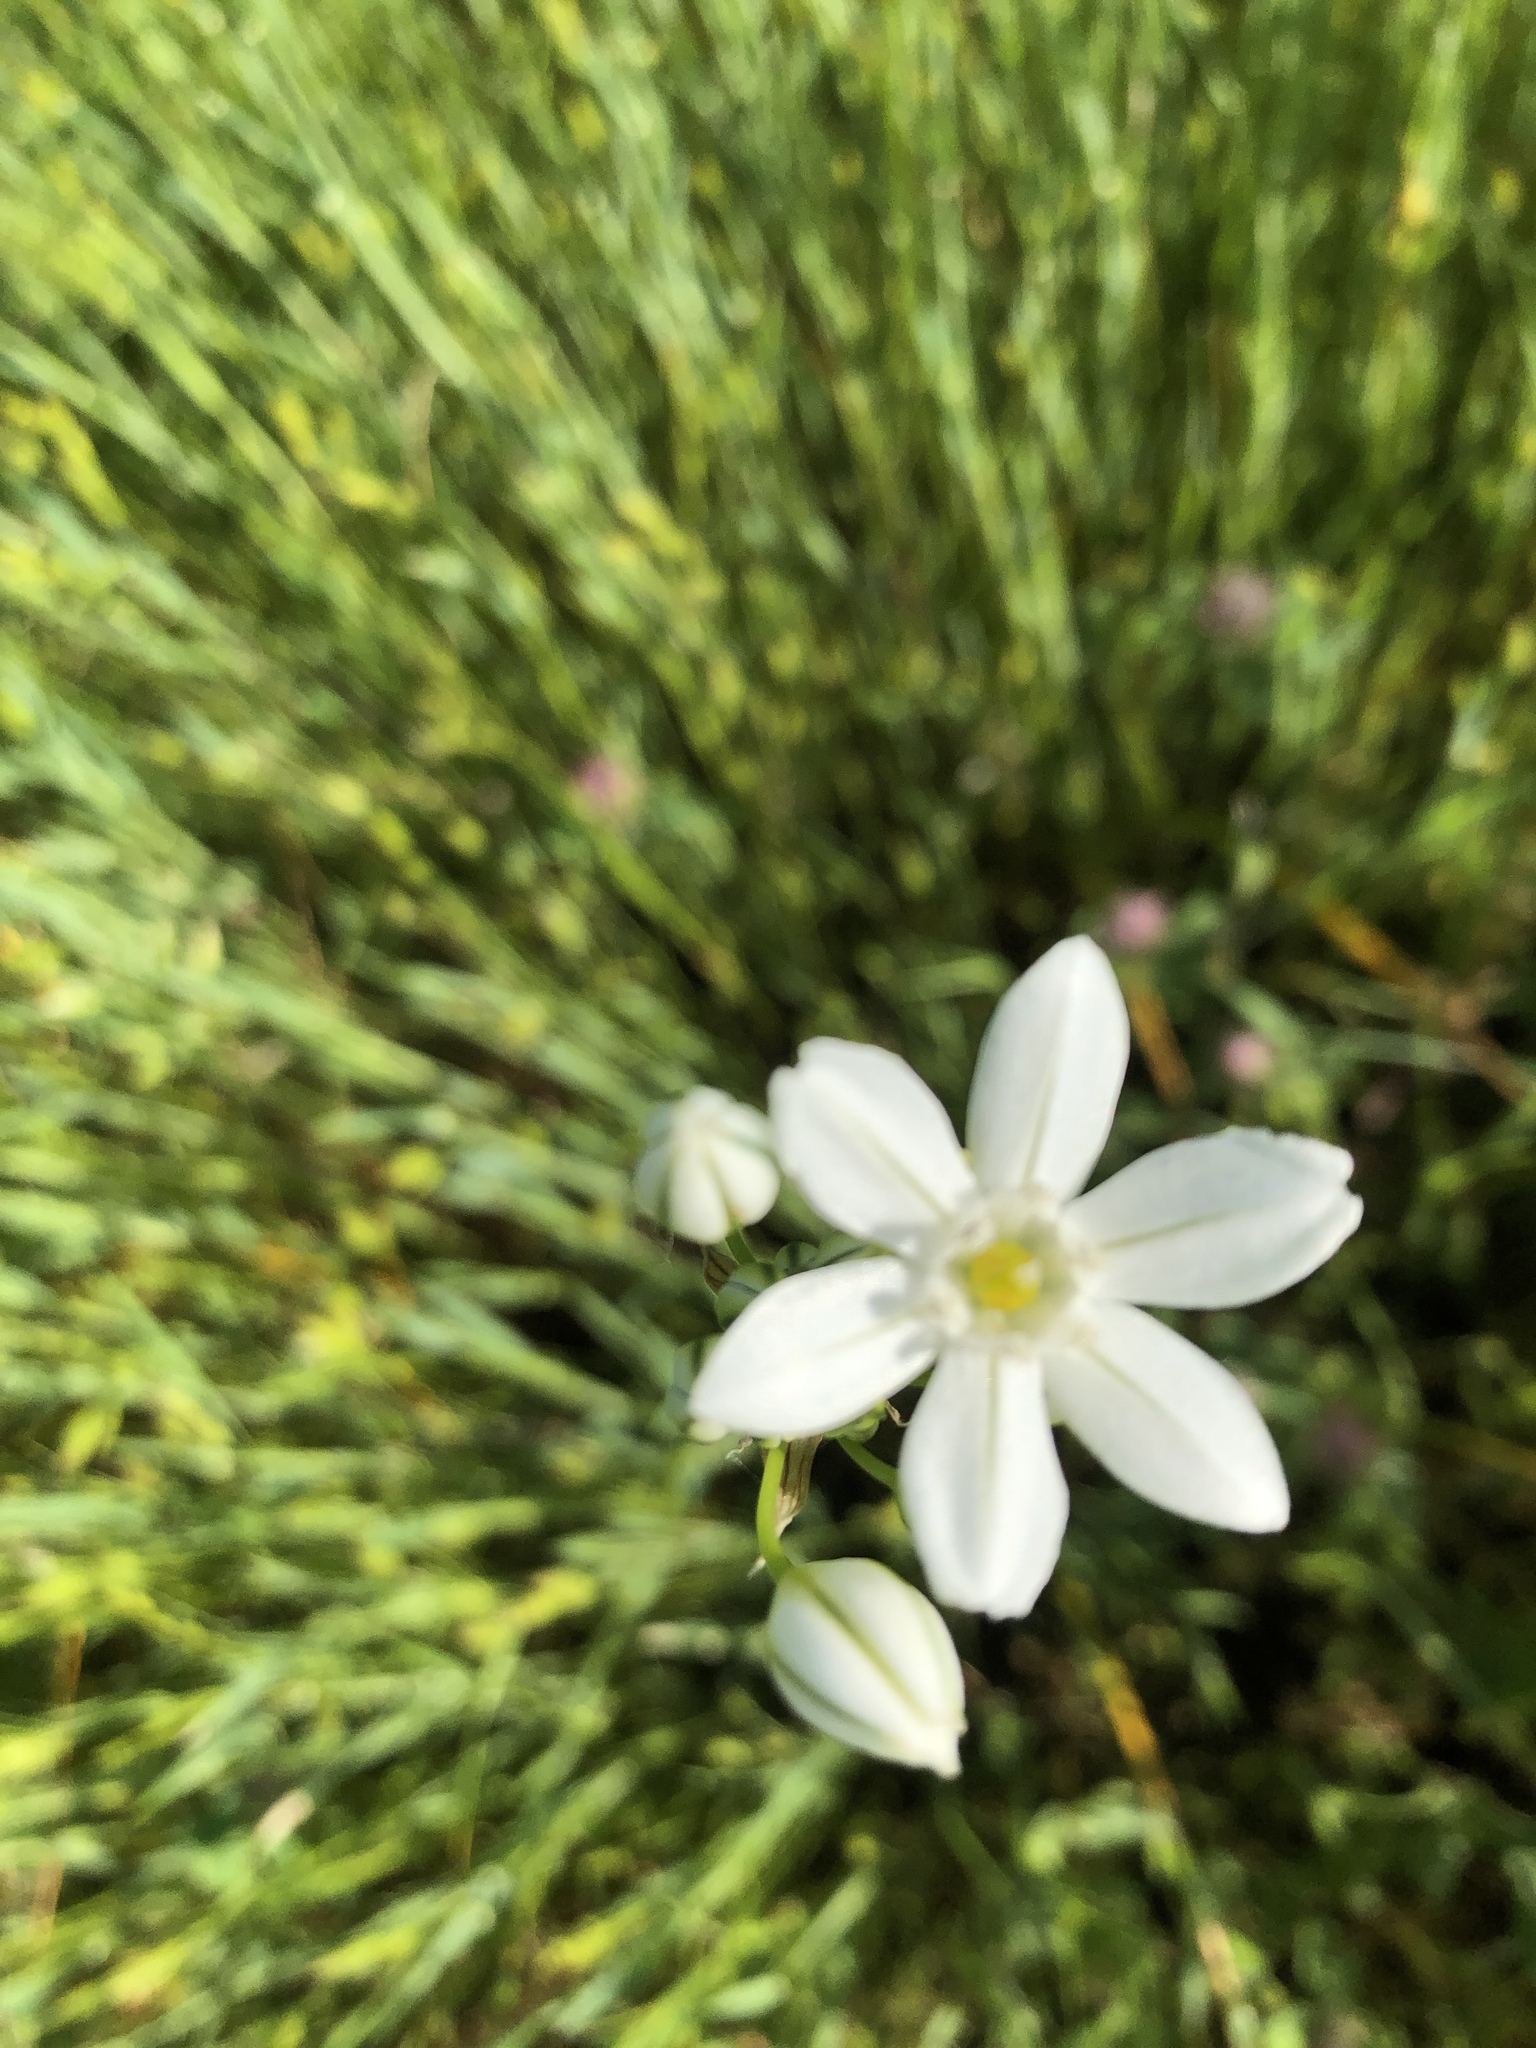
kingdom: Plantae
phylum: Tracheophyta
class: Liliopsida
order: Asparagales
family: Asparagaceae
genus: Triteleia
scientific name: Triteleia hyacinthina
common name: White brodiaea
